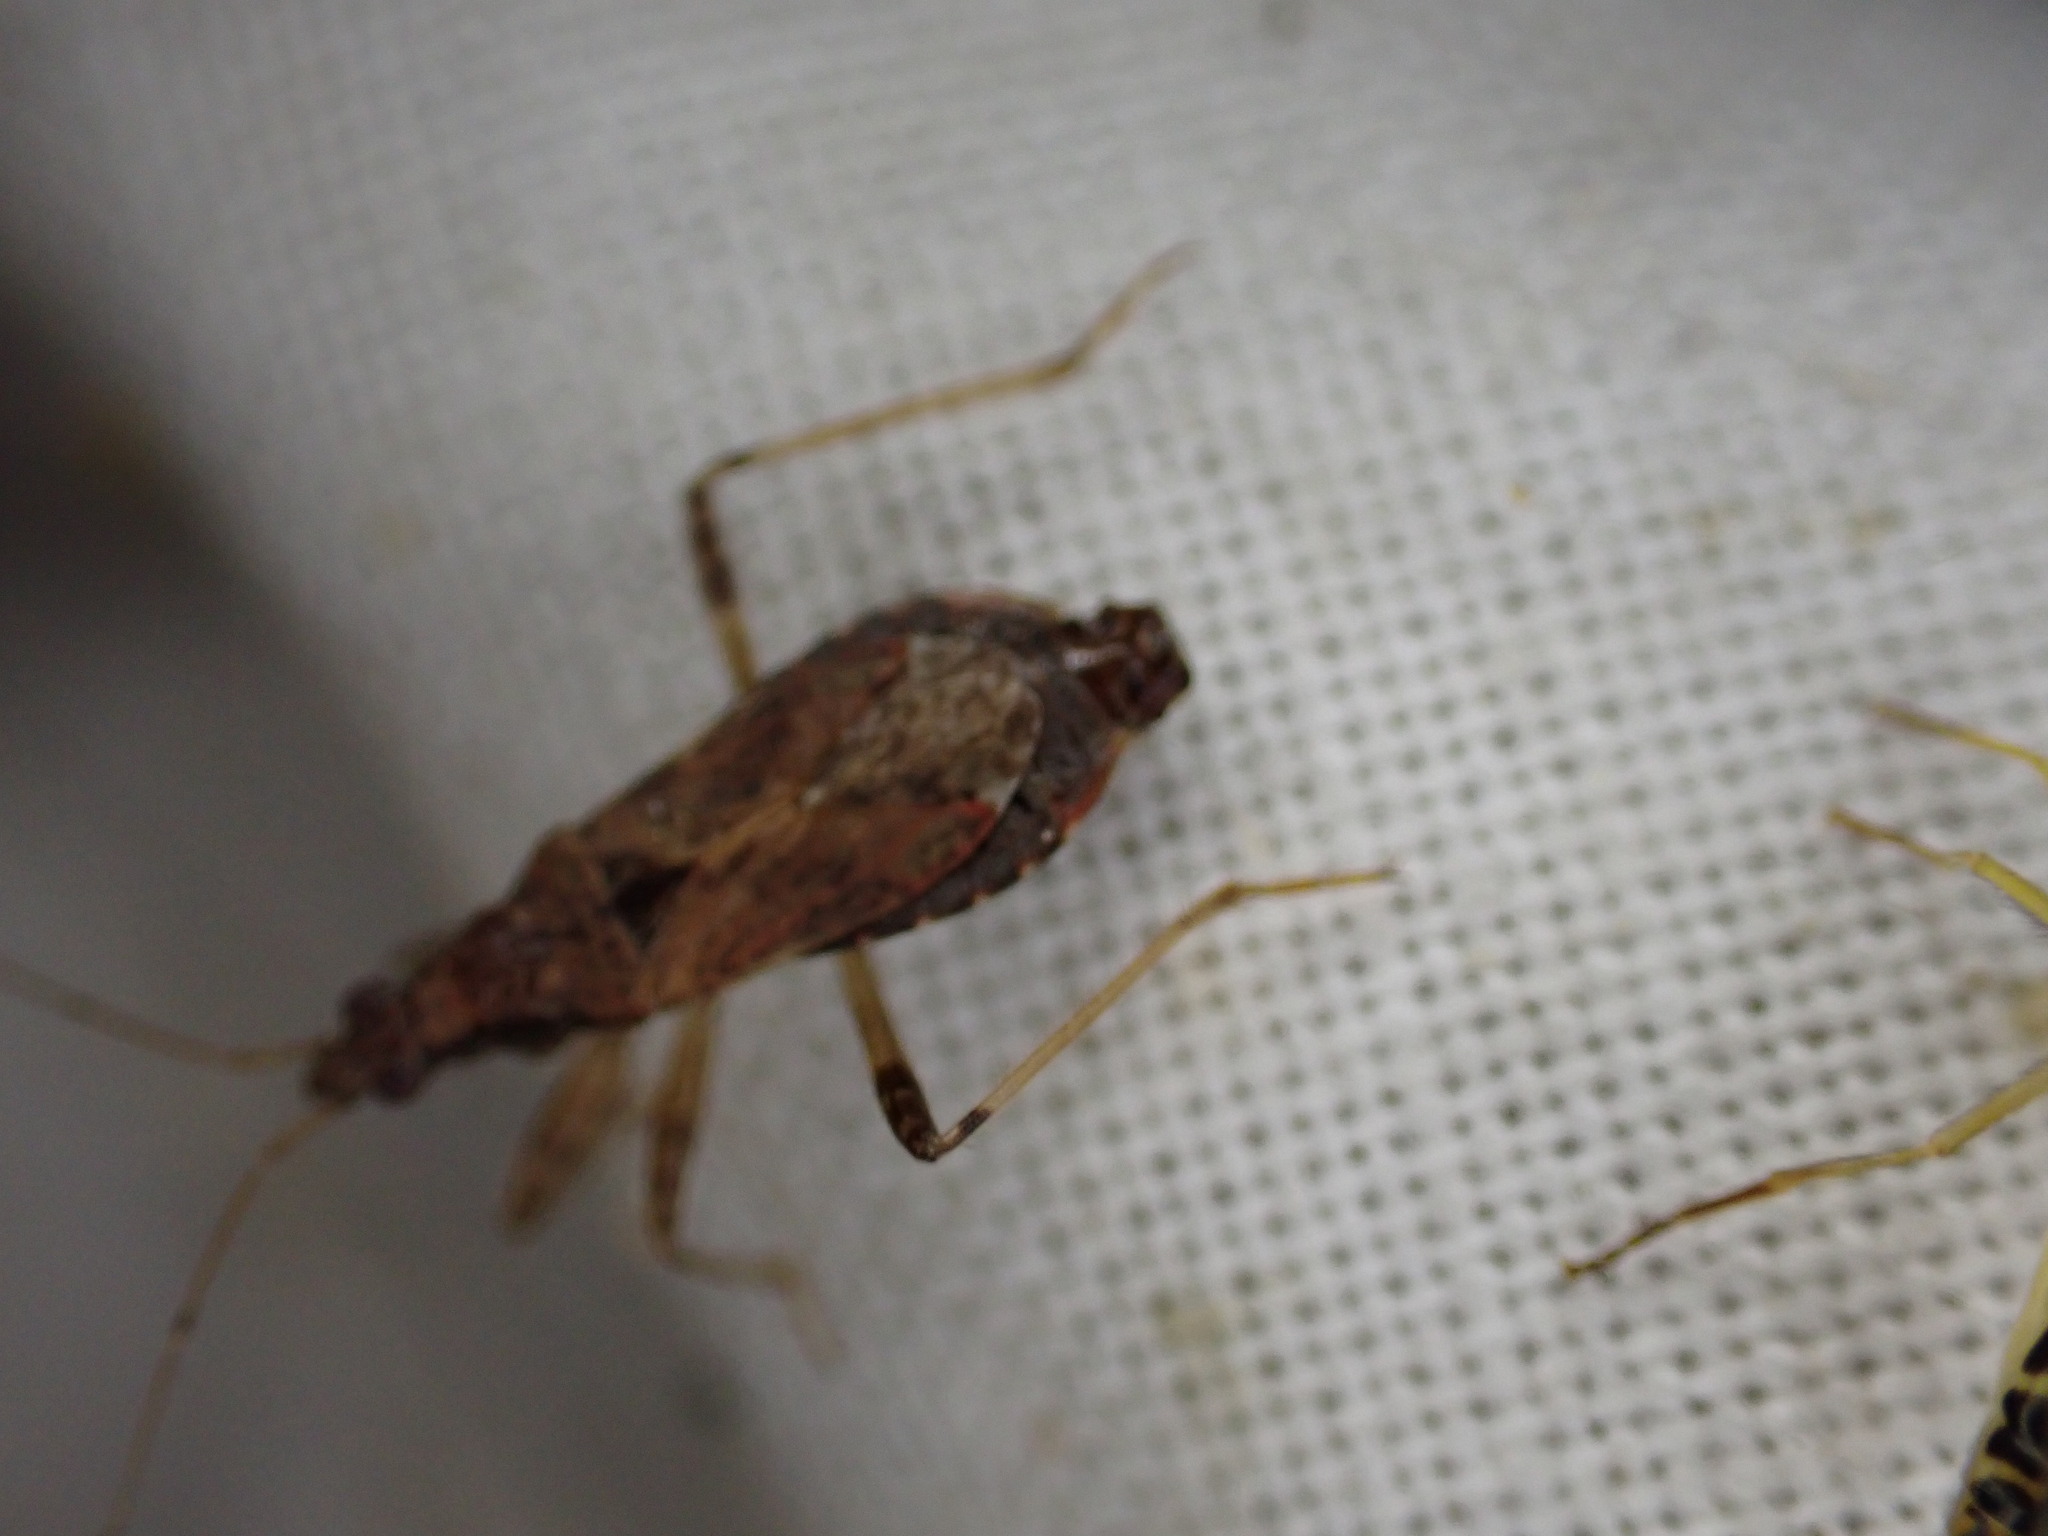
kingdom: Animalia
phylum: Arthropoda
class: Insecta
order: Hemiptera
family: Nabidae
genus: Himacerus
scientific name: Himacerus mirmicoides
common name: Ant damsel bug
